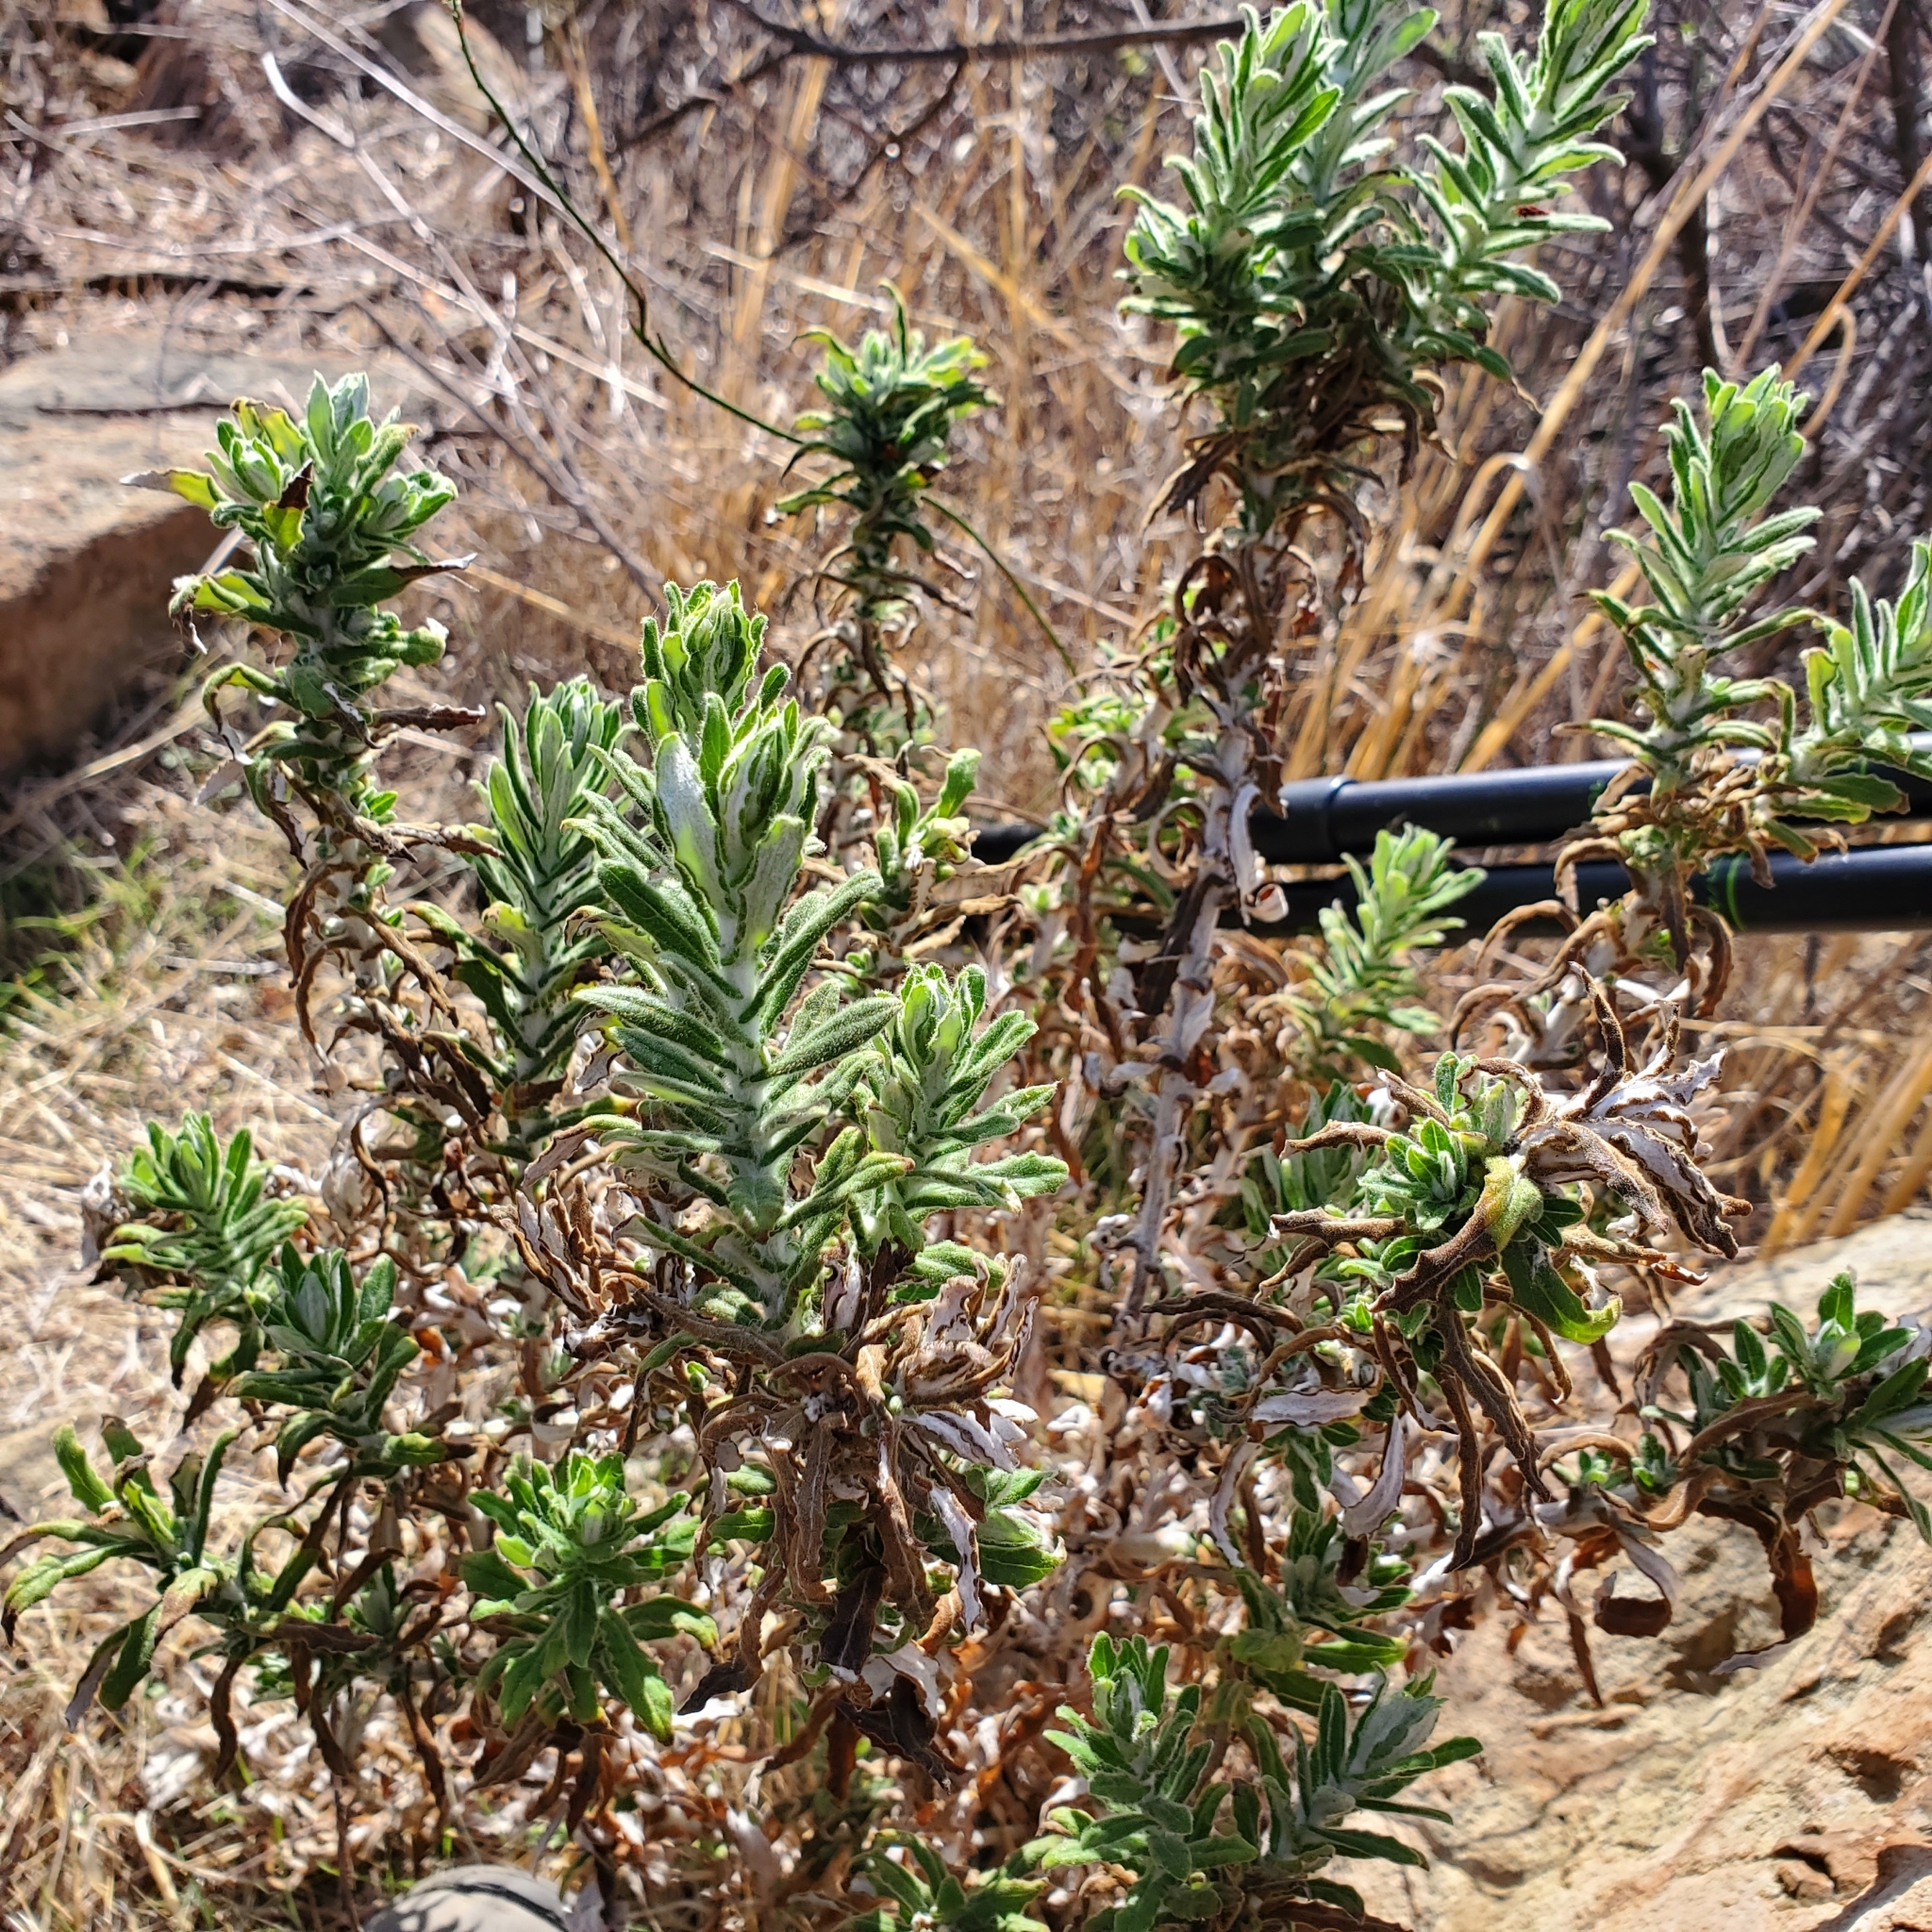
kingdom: Plantae
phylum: Tracheophyta
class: Magnoliopsida
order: Asterales
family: Asteraceae
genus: Pseudognaphalium
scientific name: Pseudognaphalium biolettii
